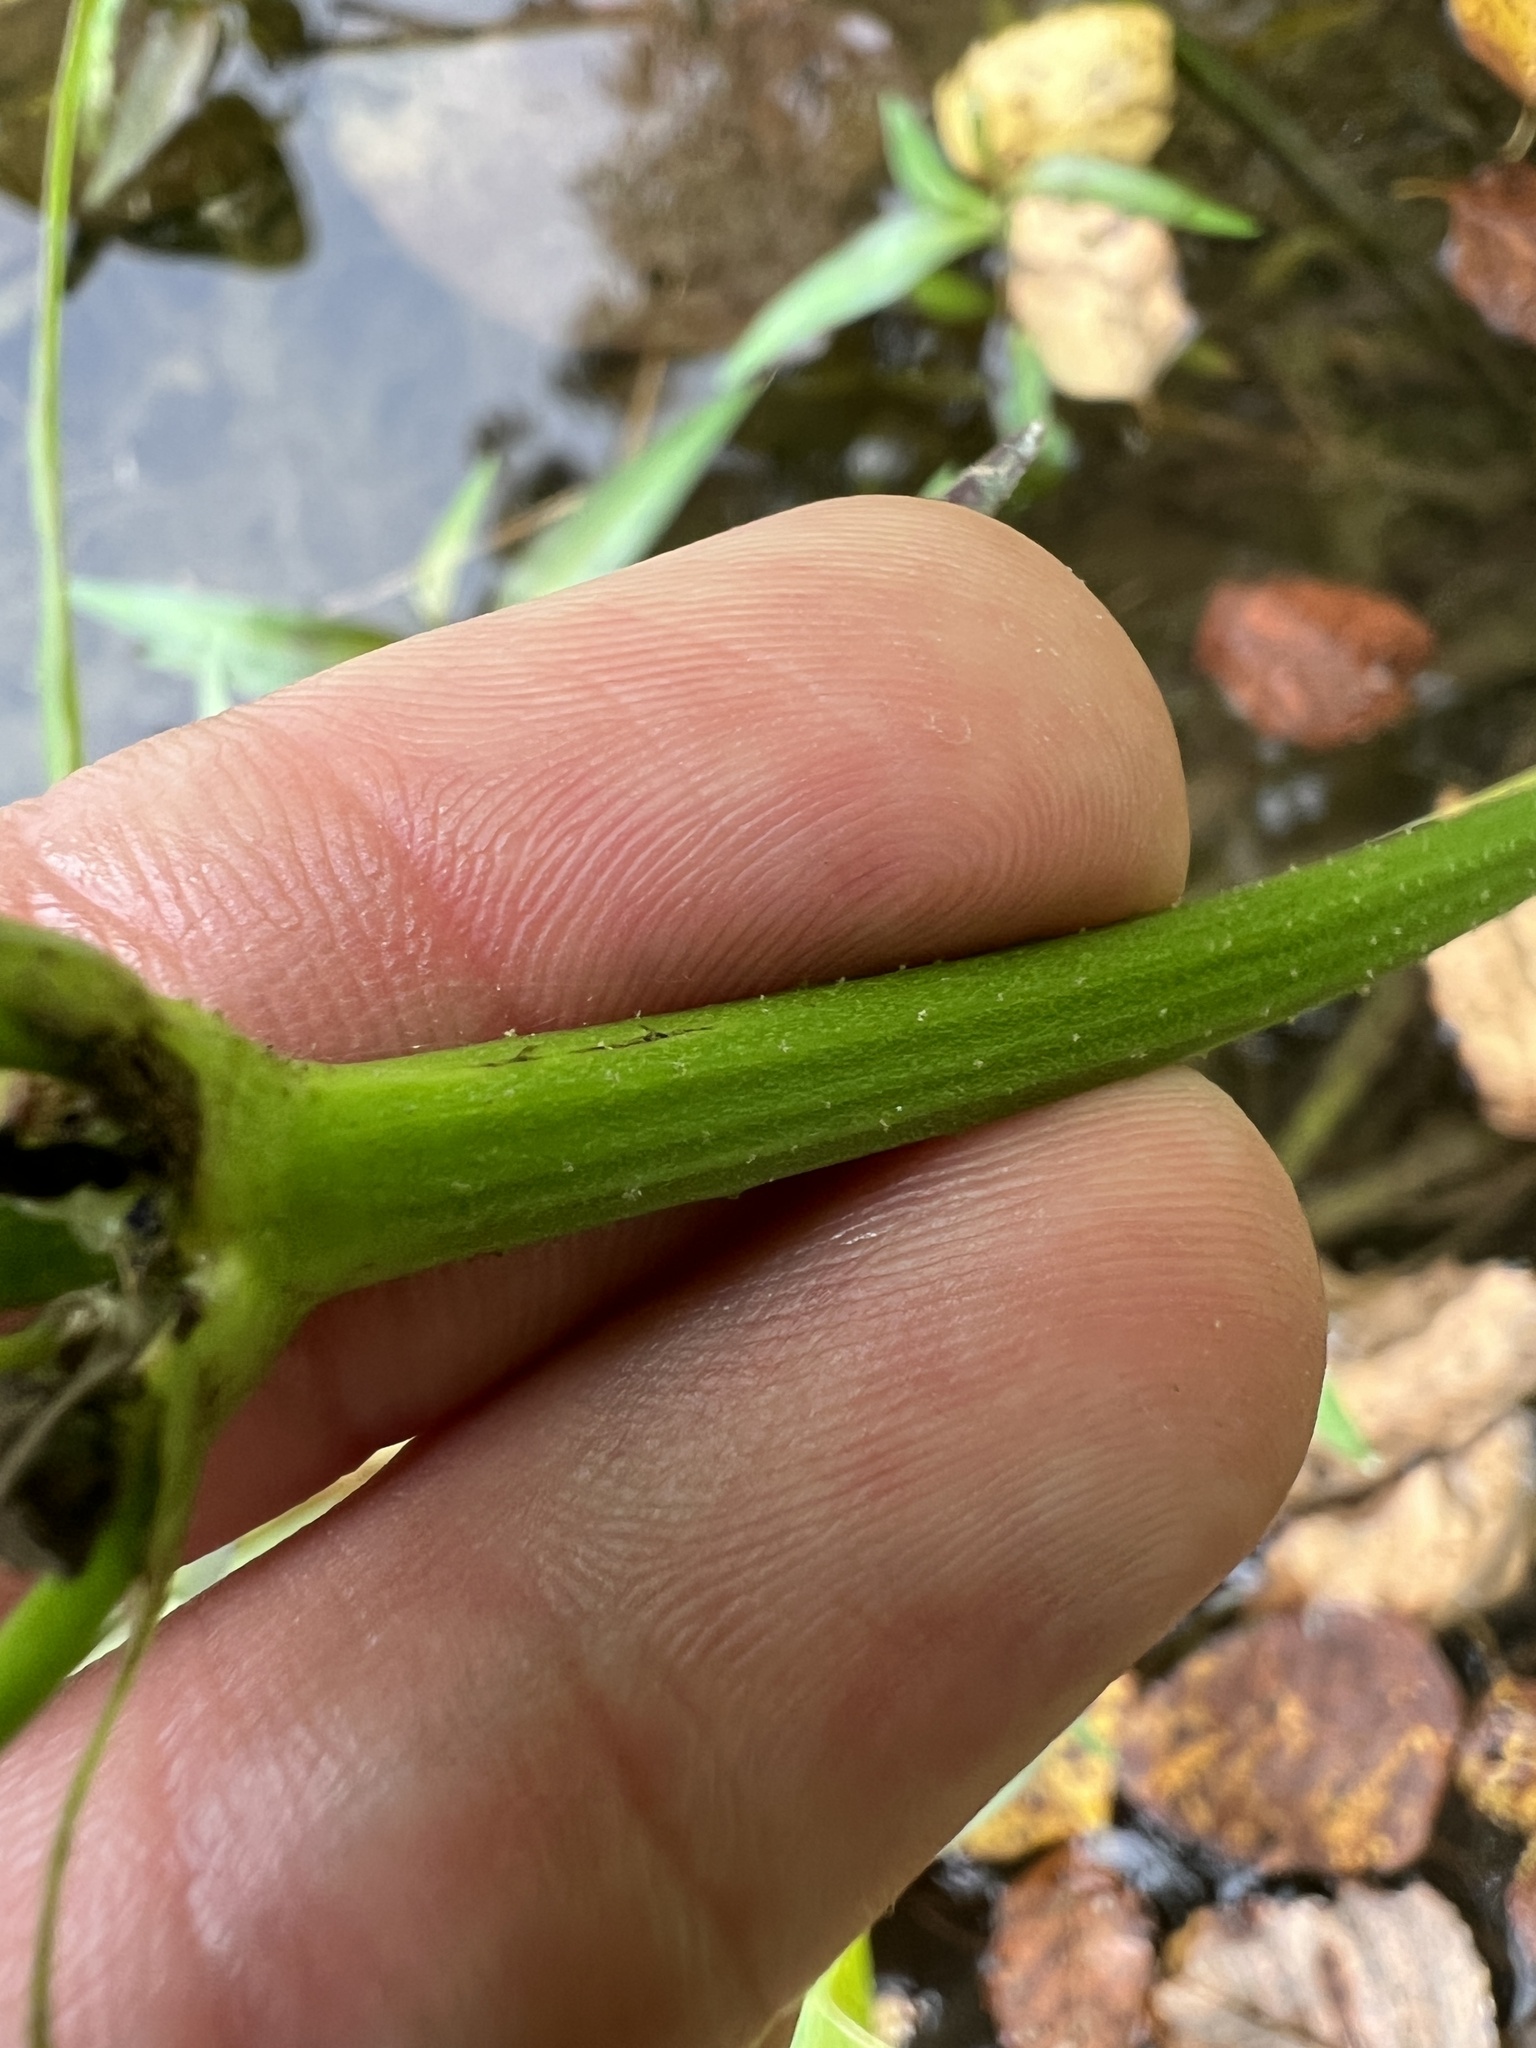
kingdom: Plantae
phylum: Tracheophyta
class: Liliopsida
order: Alismatales
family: Alismataceae
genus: Aquarius
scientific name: Aquarius cordifolius
